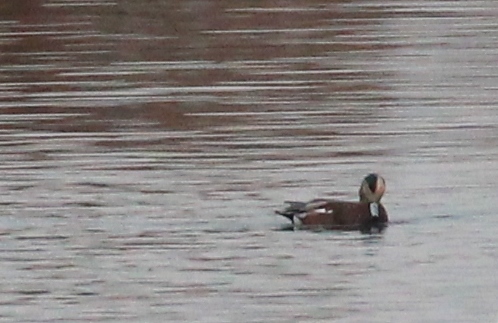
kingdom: Animalia
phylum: Chordata
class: Aves
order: Anseriformes
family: Anatidae
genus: Mareca
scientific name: Mareca americana
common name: American wigeon
